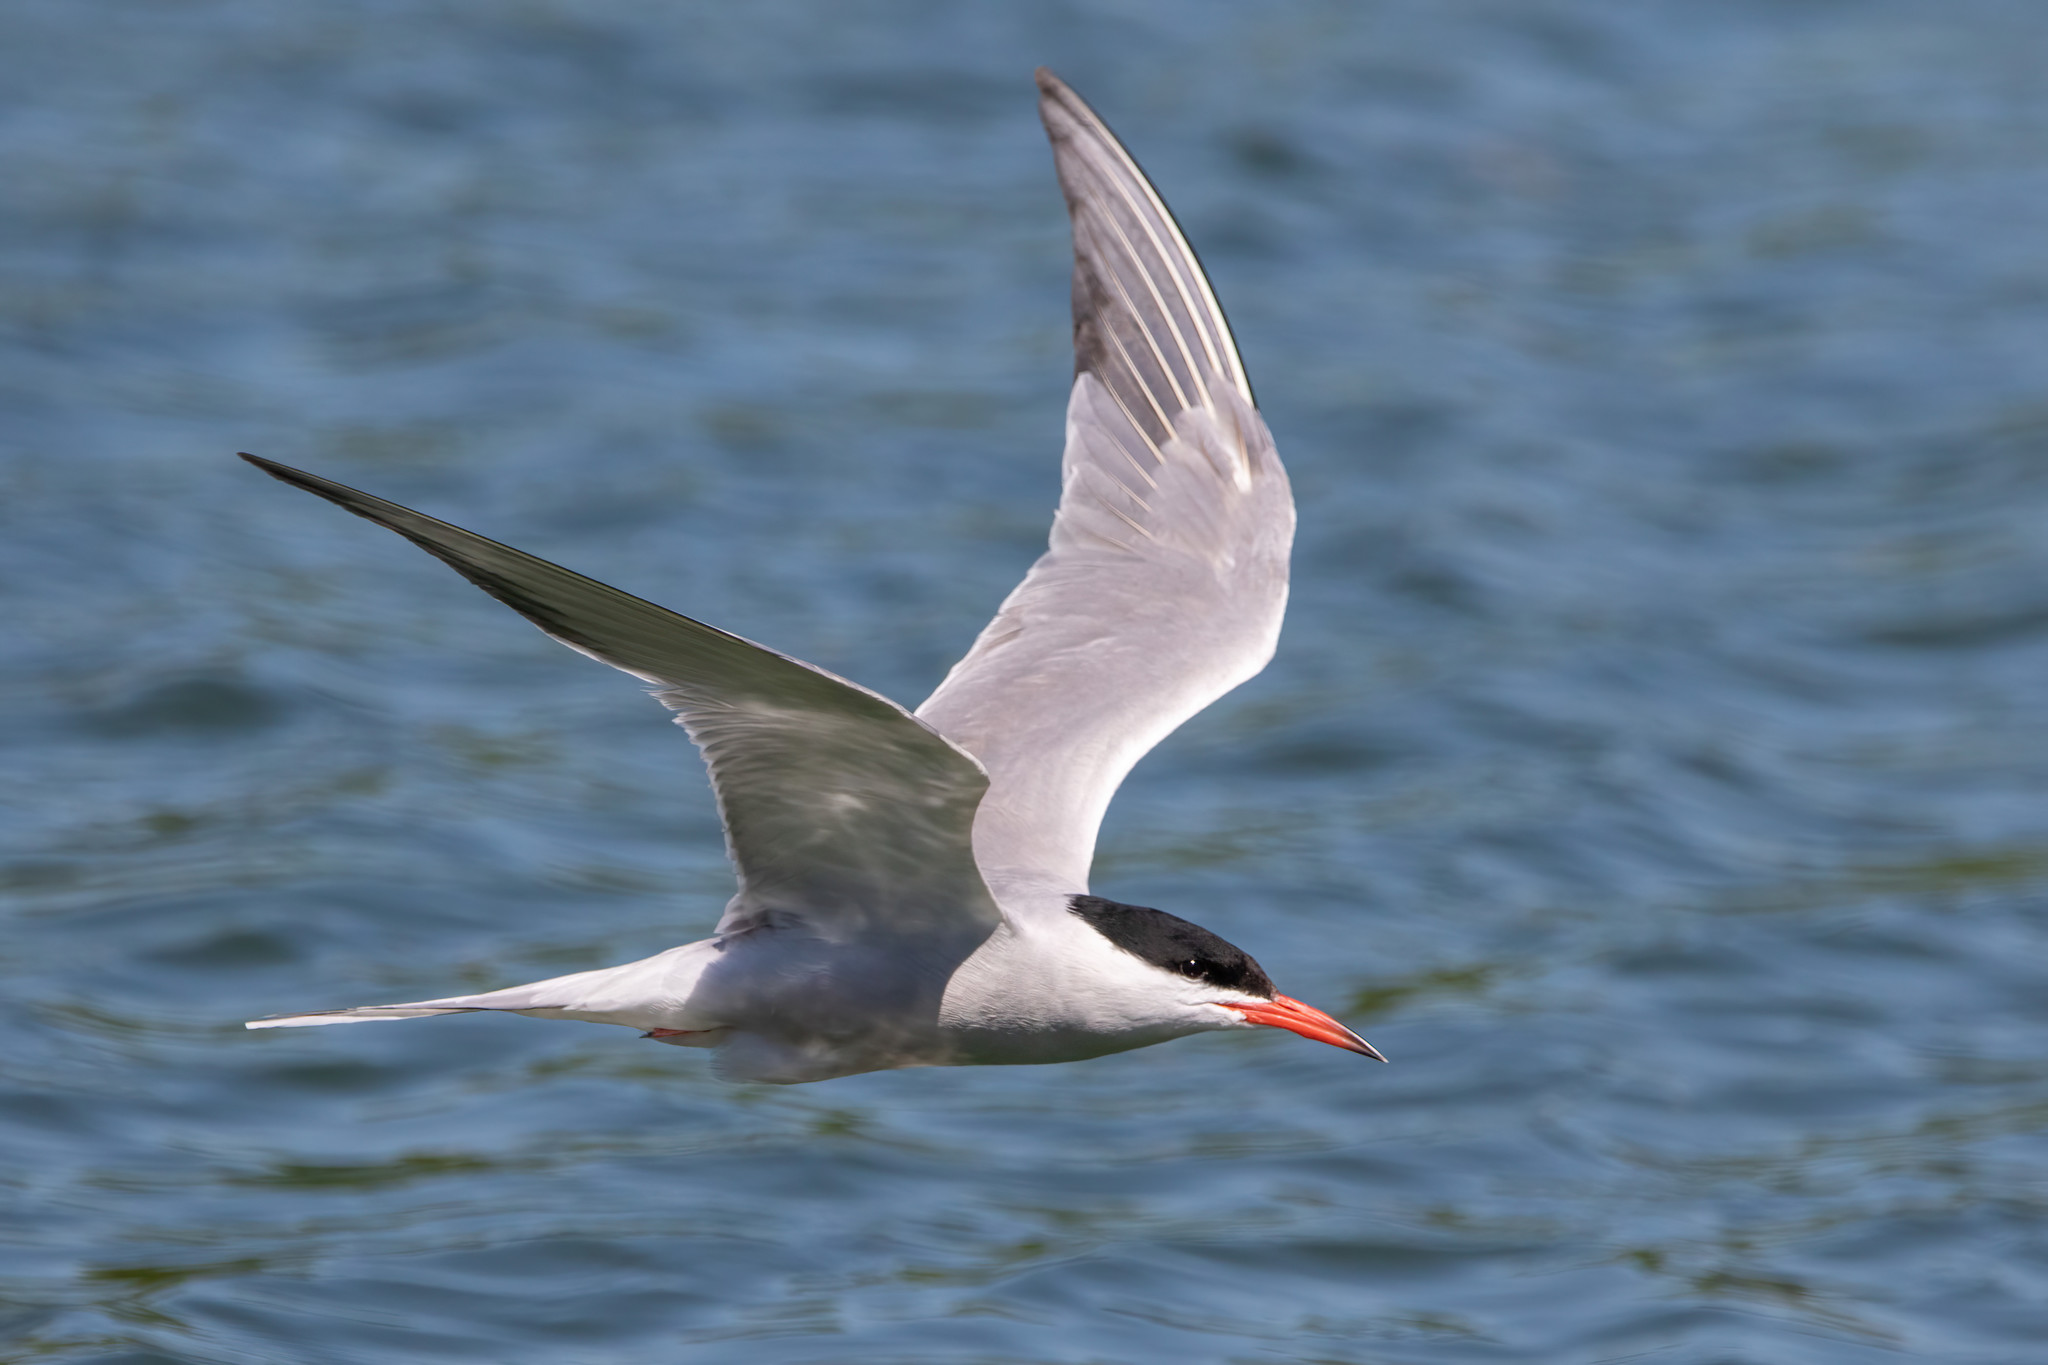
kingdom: Animalia
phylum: Chordata
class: Aves
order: Charadriiformes
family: Laridae
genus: Sterna
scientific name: Sterna hirundo
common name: Common tern
